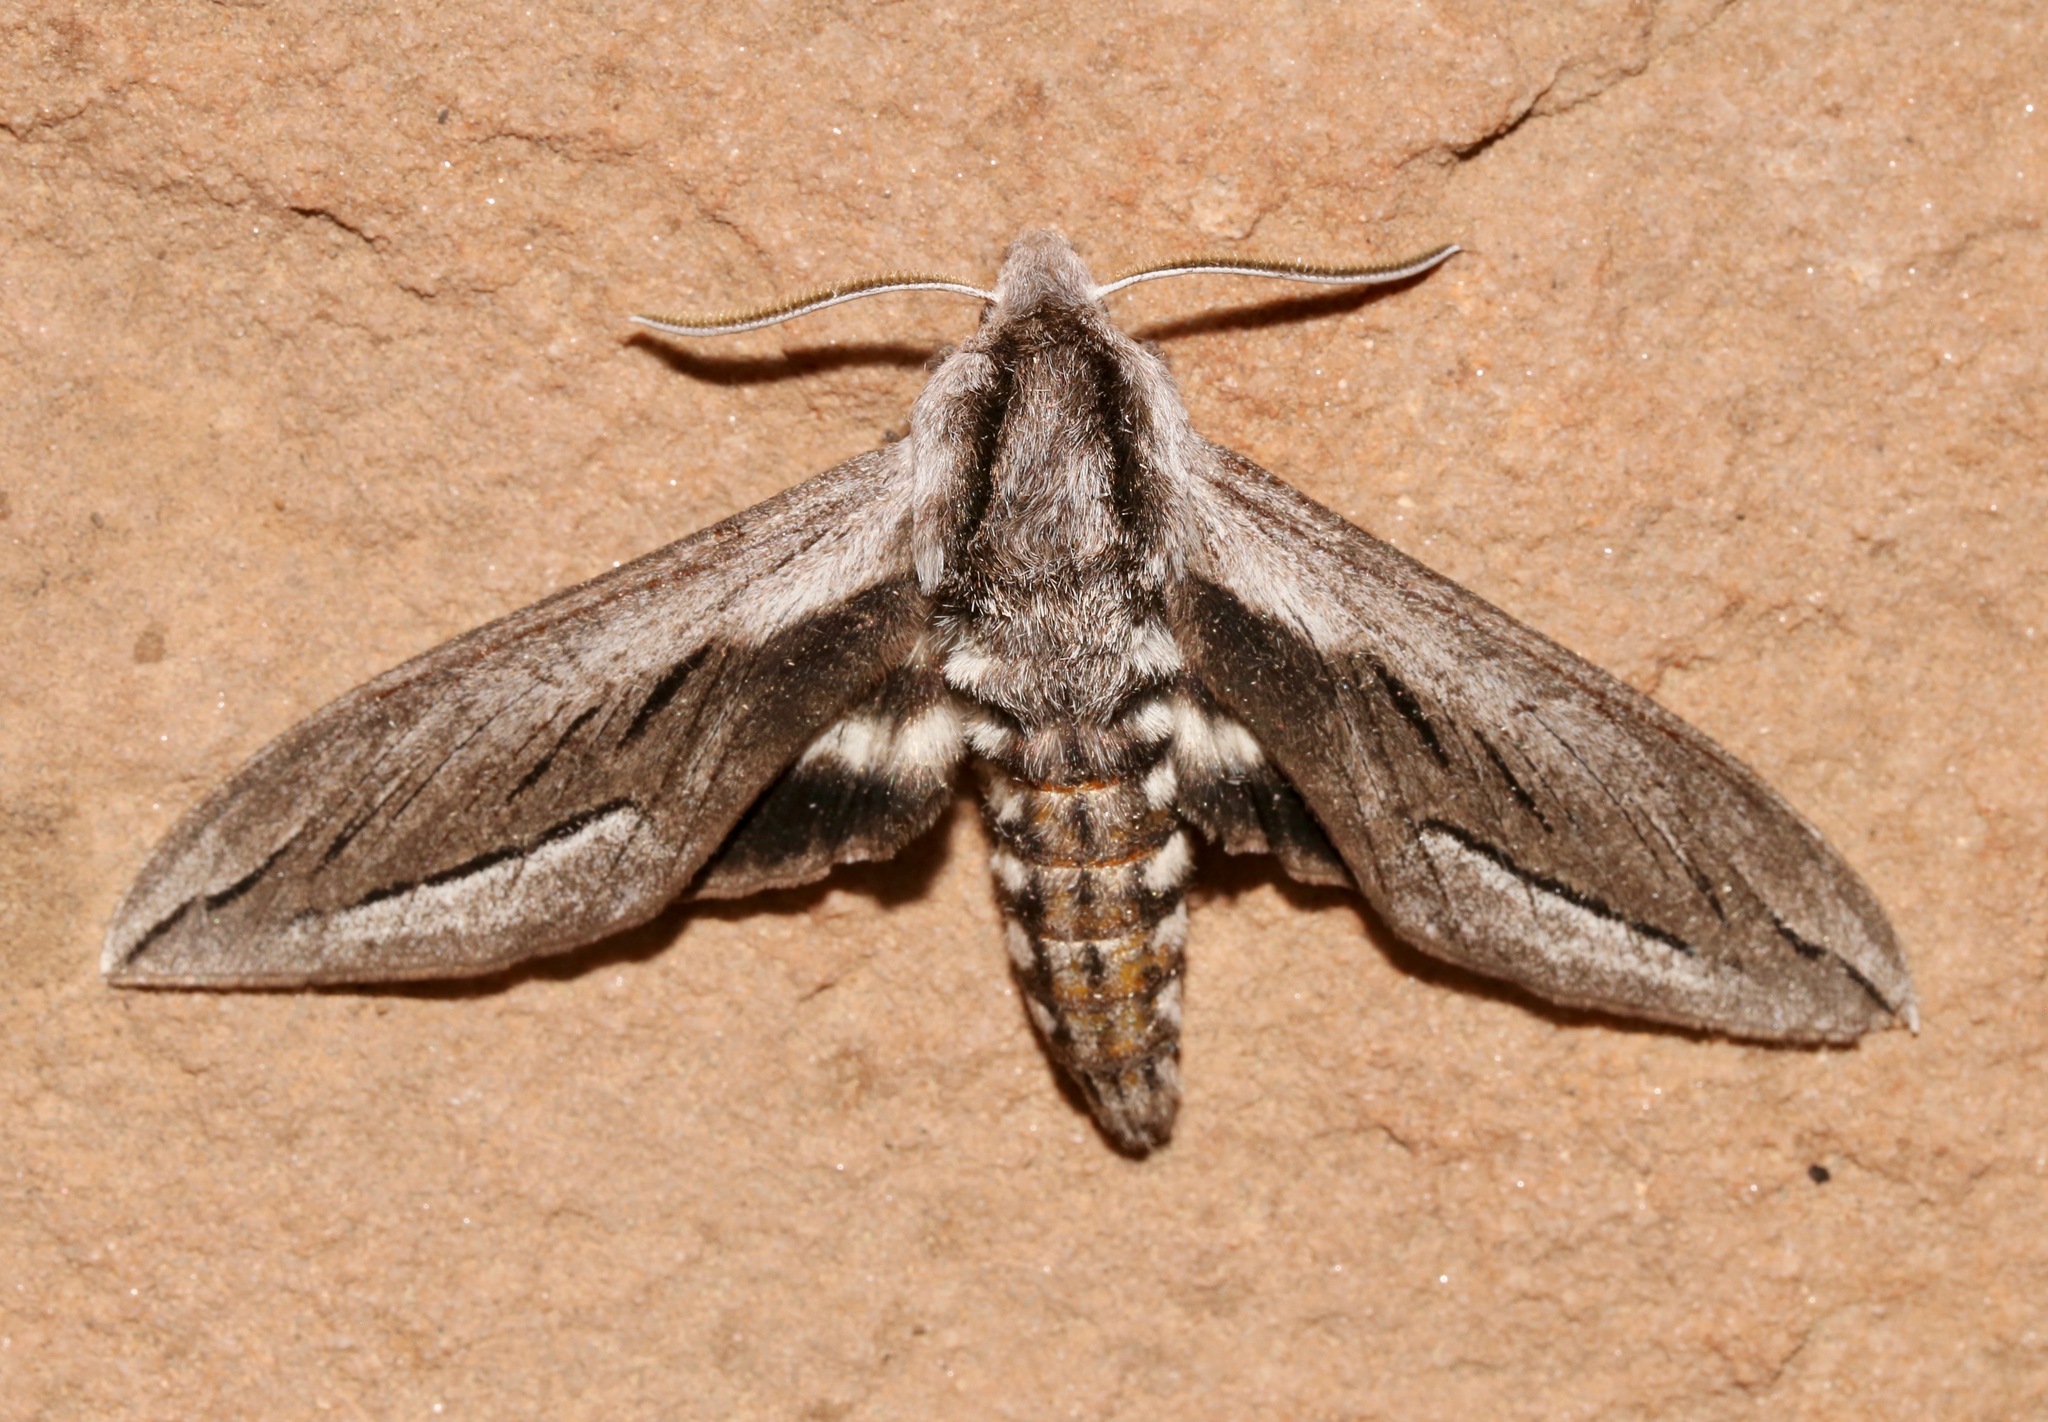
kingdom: Animalia
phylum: Arthropoda
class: Insecta
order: Lepidoptera
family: Sphingidae
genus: Sphinx
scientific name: Sphinx vashti
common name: Snowberry sphinx
